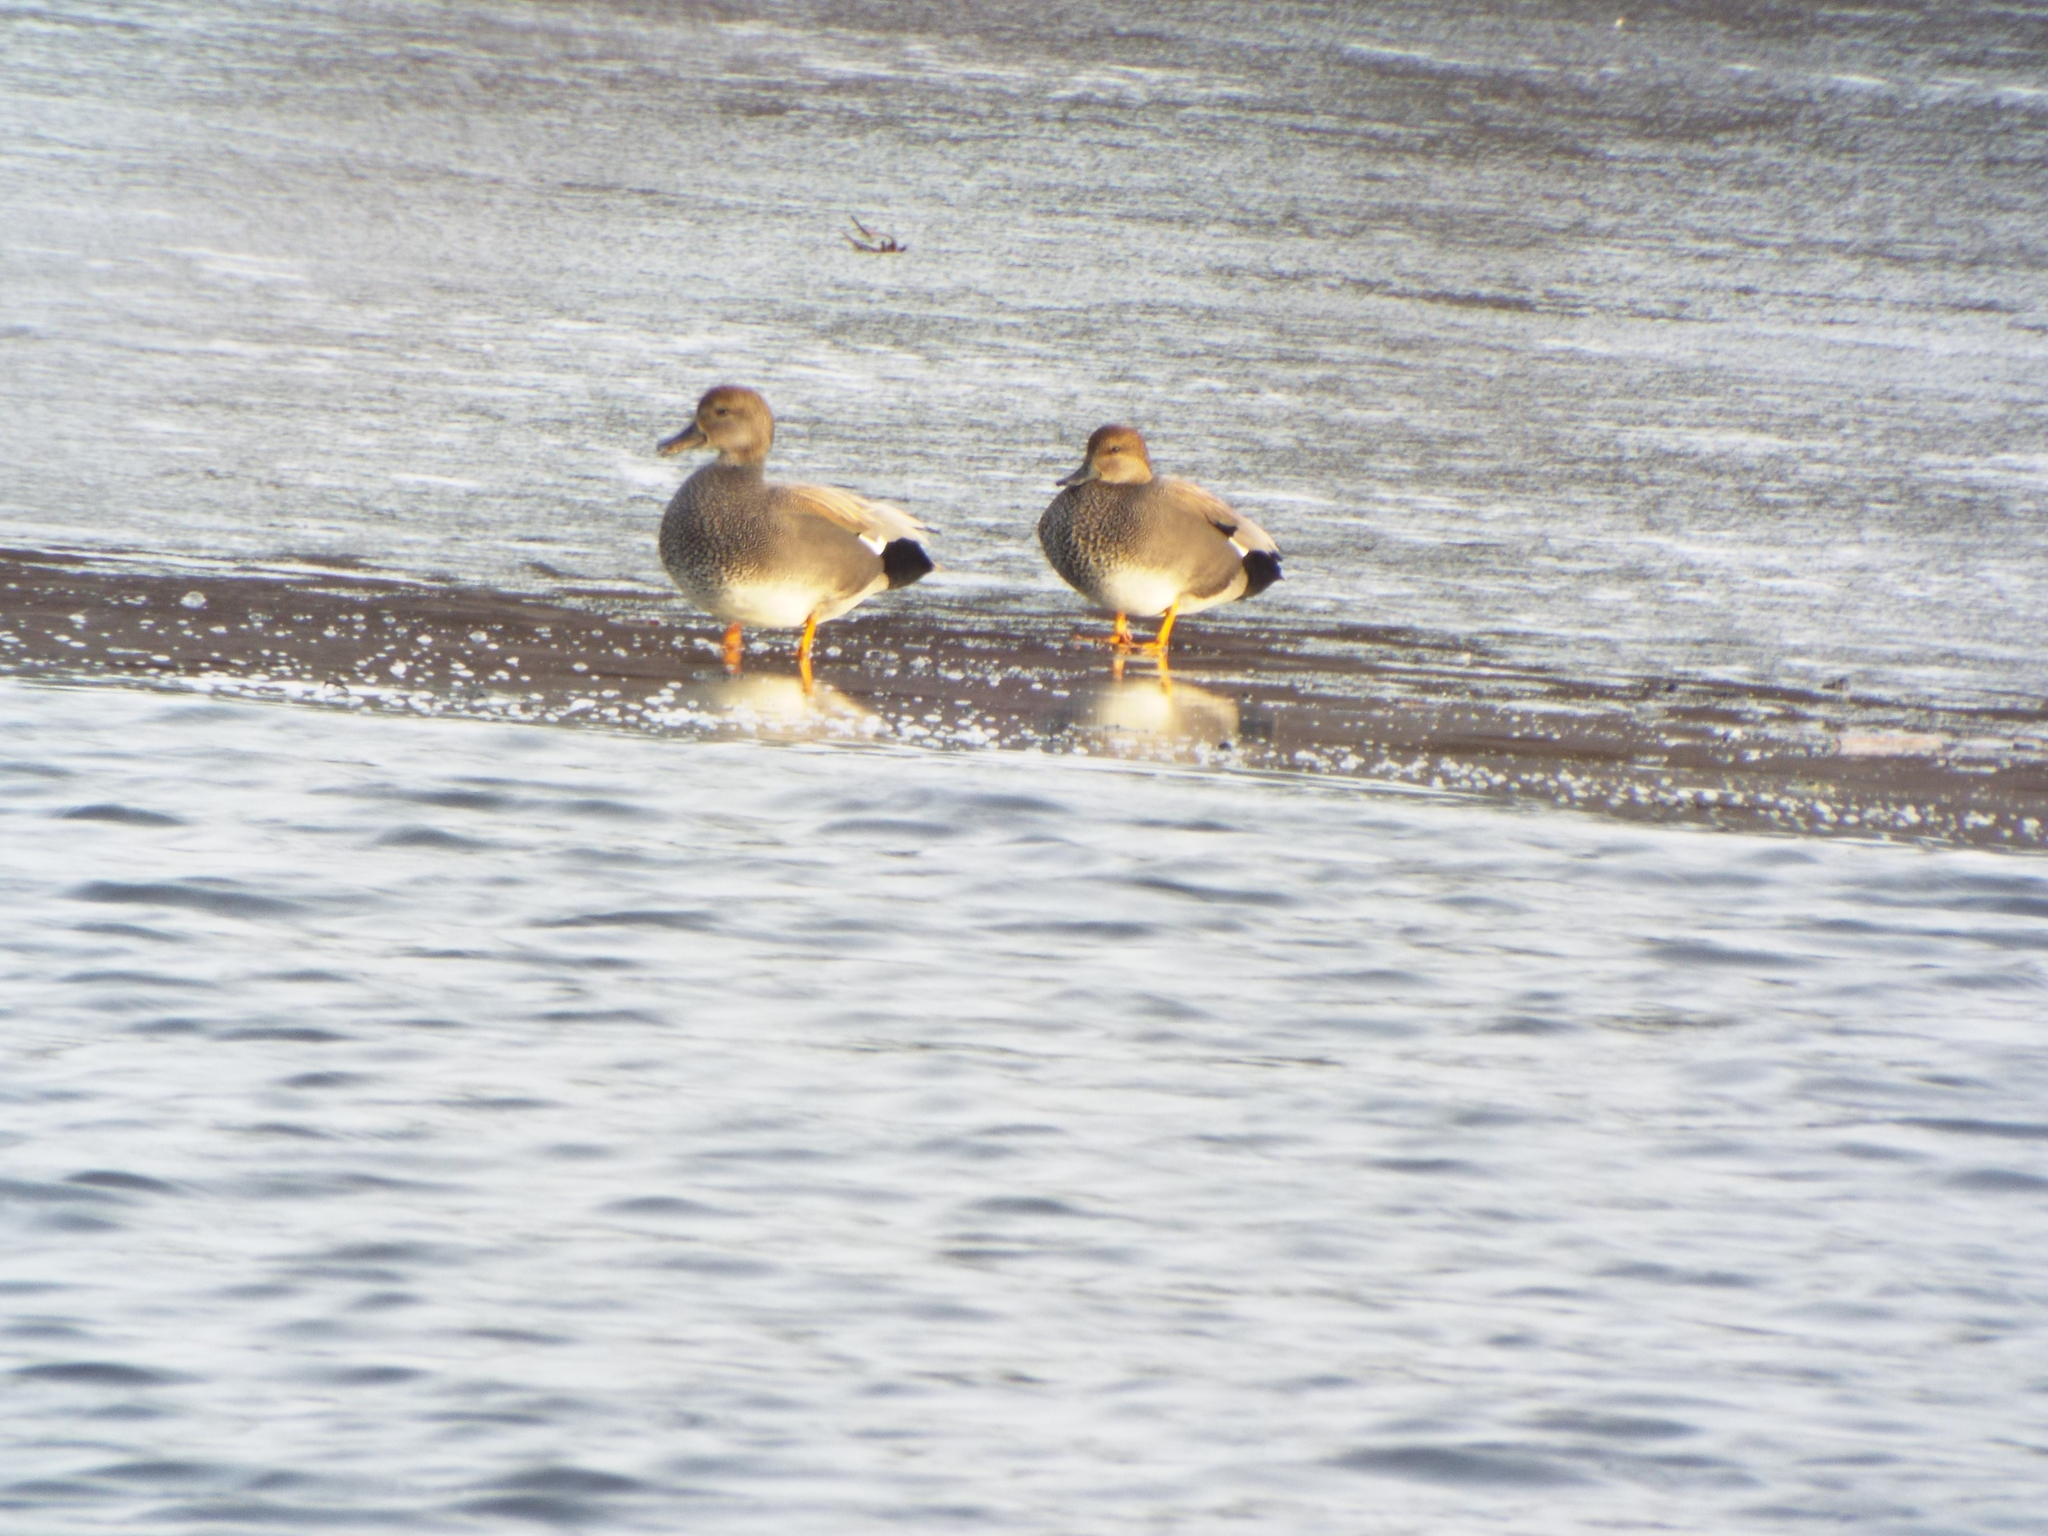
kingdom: Animalia
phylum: Chordata
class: Aves
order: Anseriformes
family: Anatidae
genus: Mareca
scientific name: Mareca strepera
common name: Gadwall
